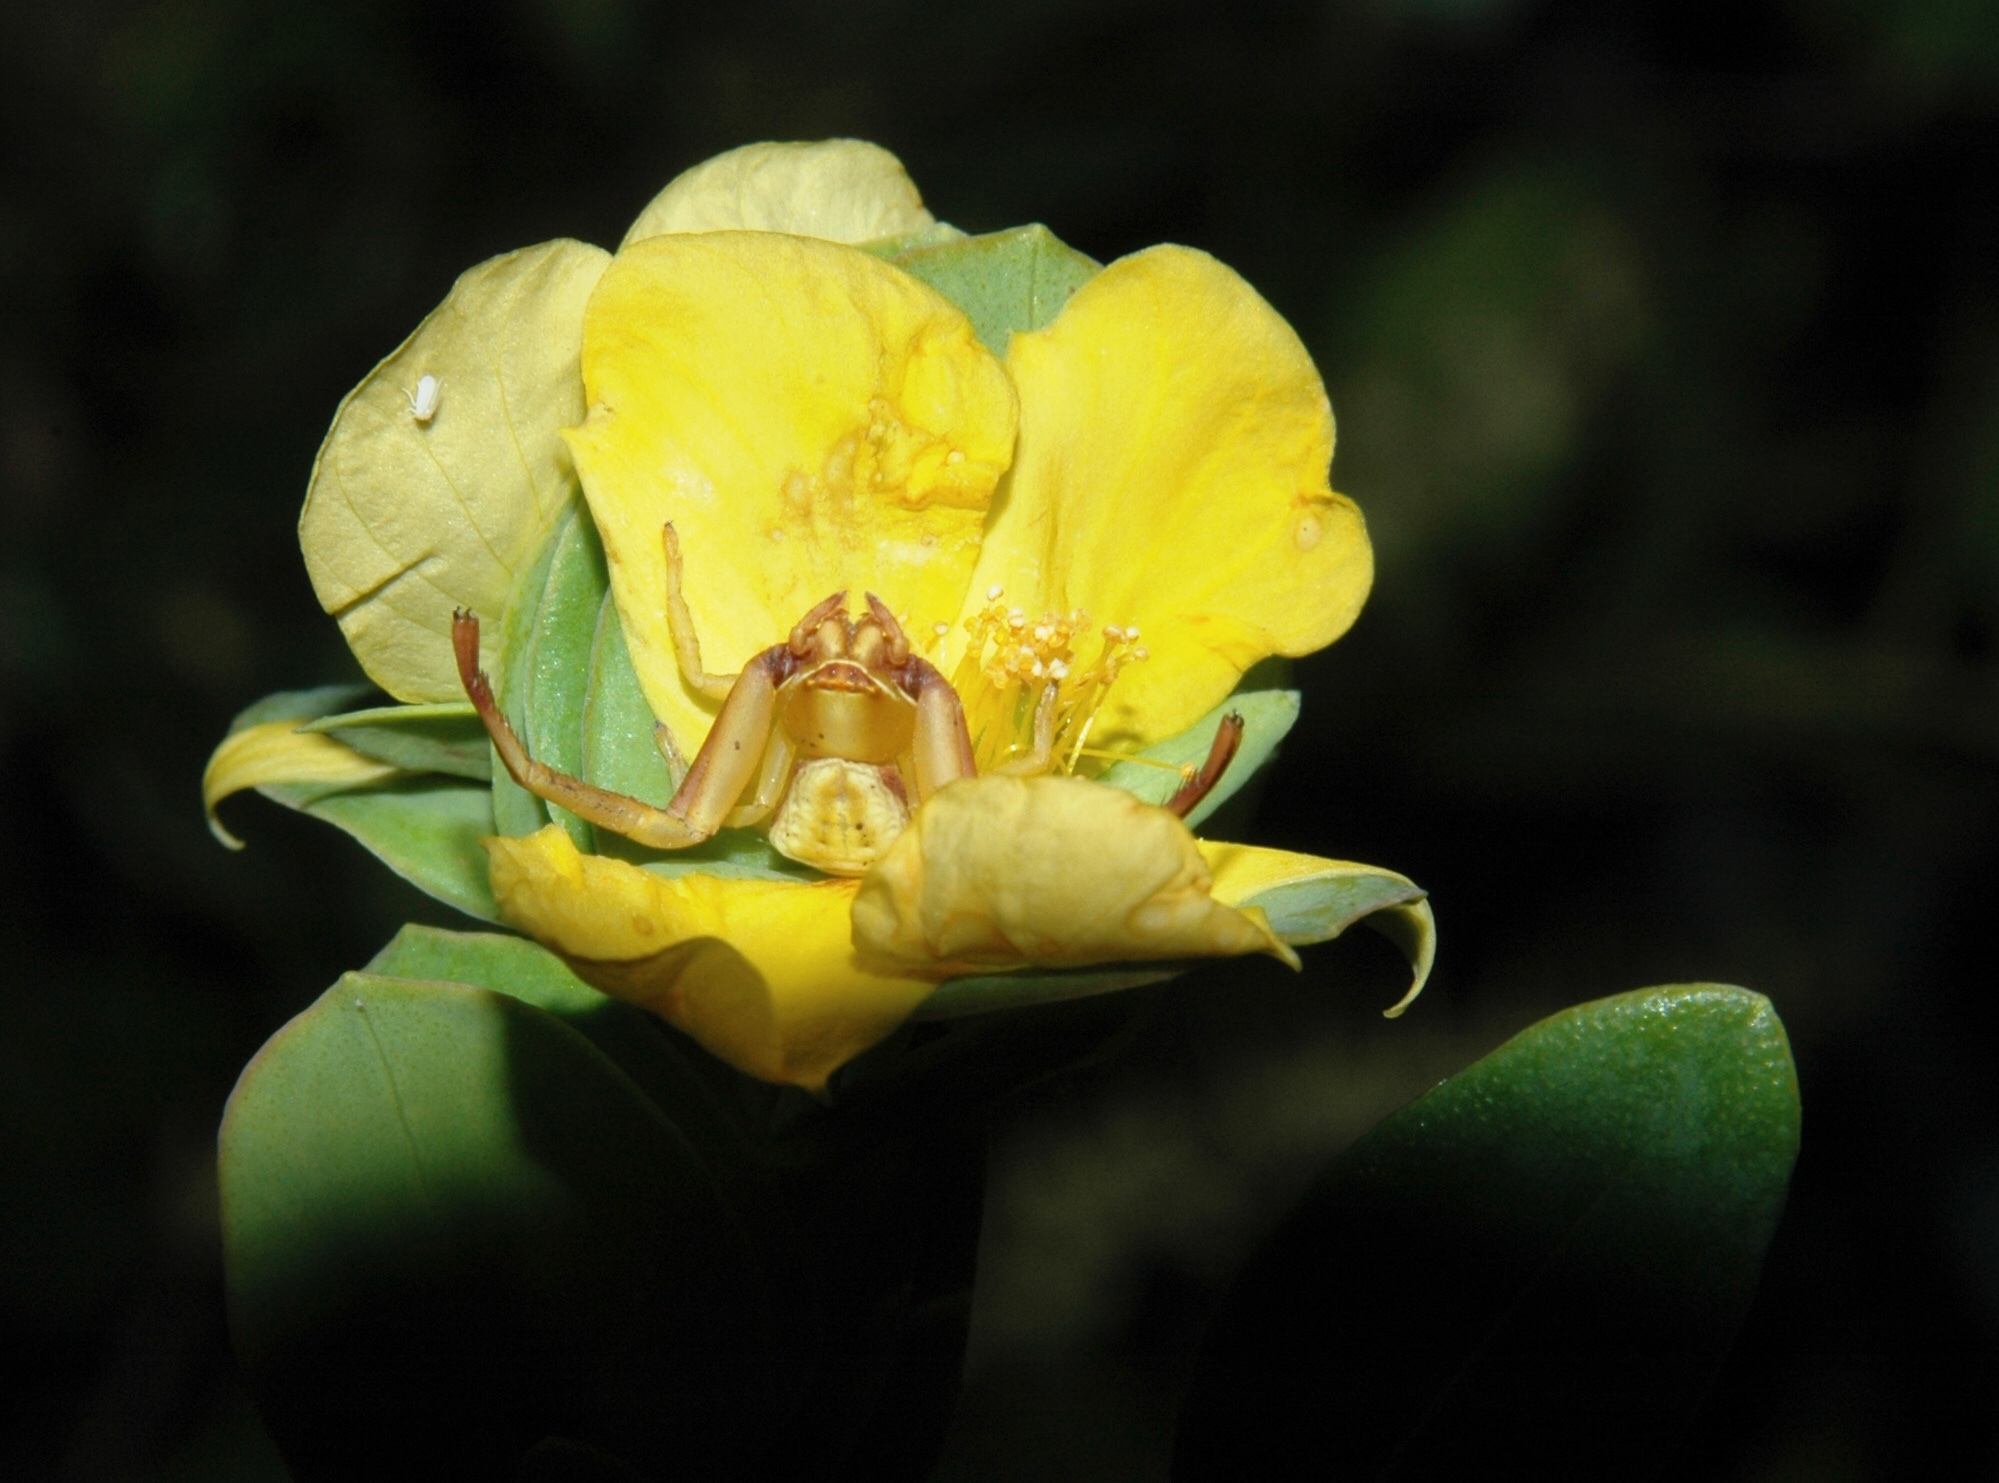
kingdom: Animalia
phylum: Arthropoda
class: Arachnida
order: Araneae
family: Thomisidae
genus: Misumenoides
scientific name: Misumenoides formosipes
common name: White-banded crab spider
